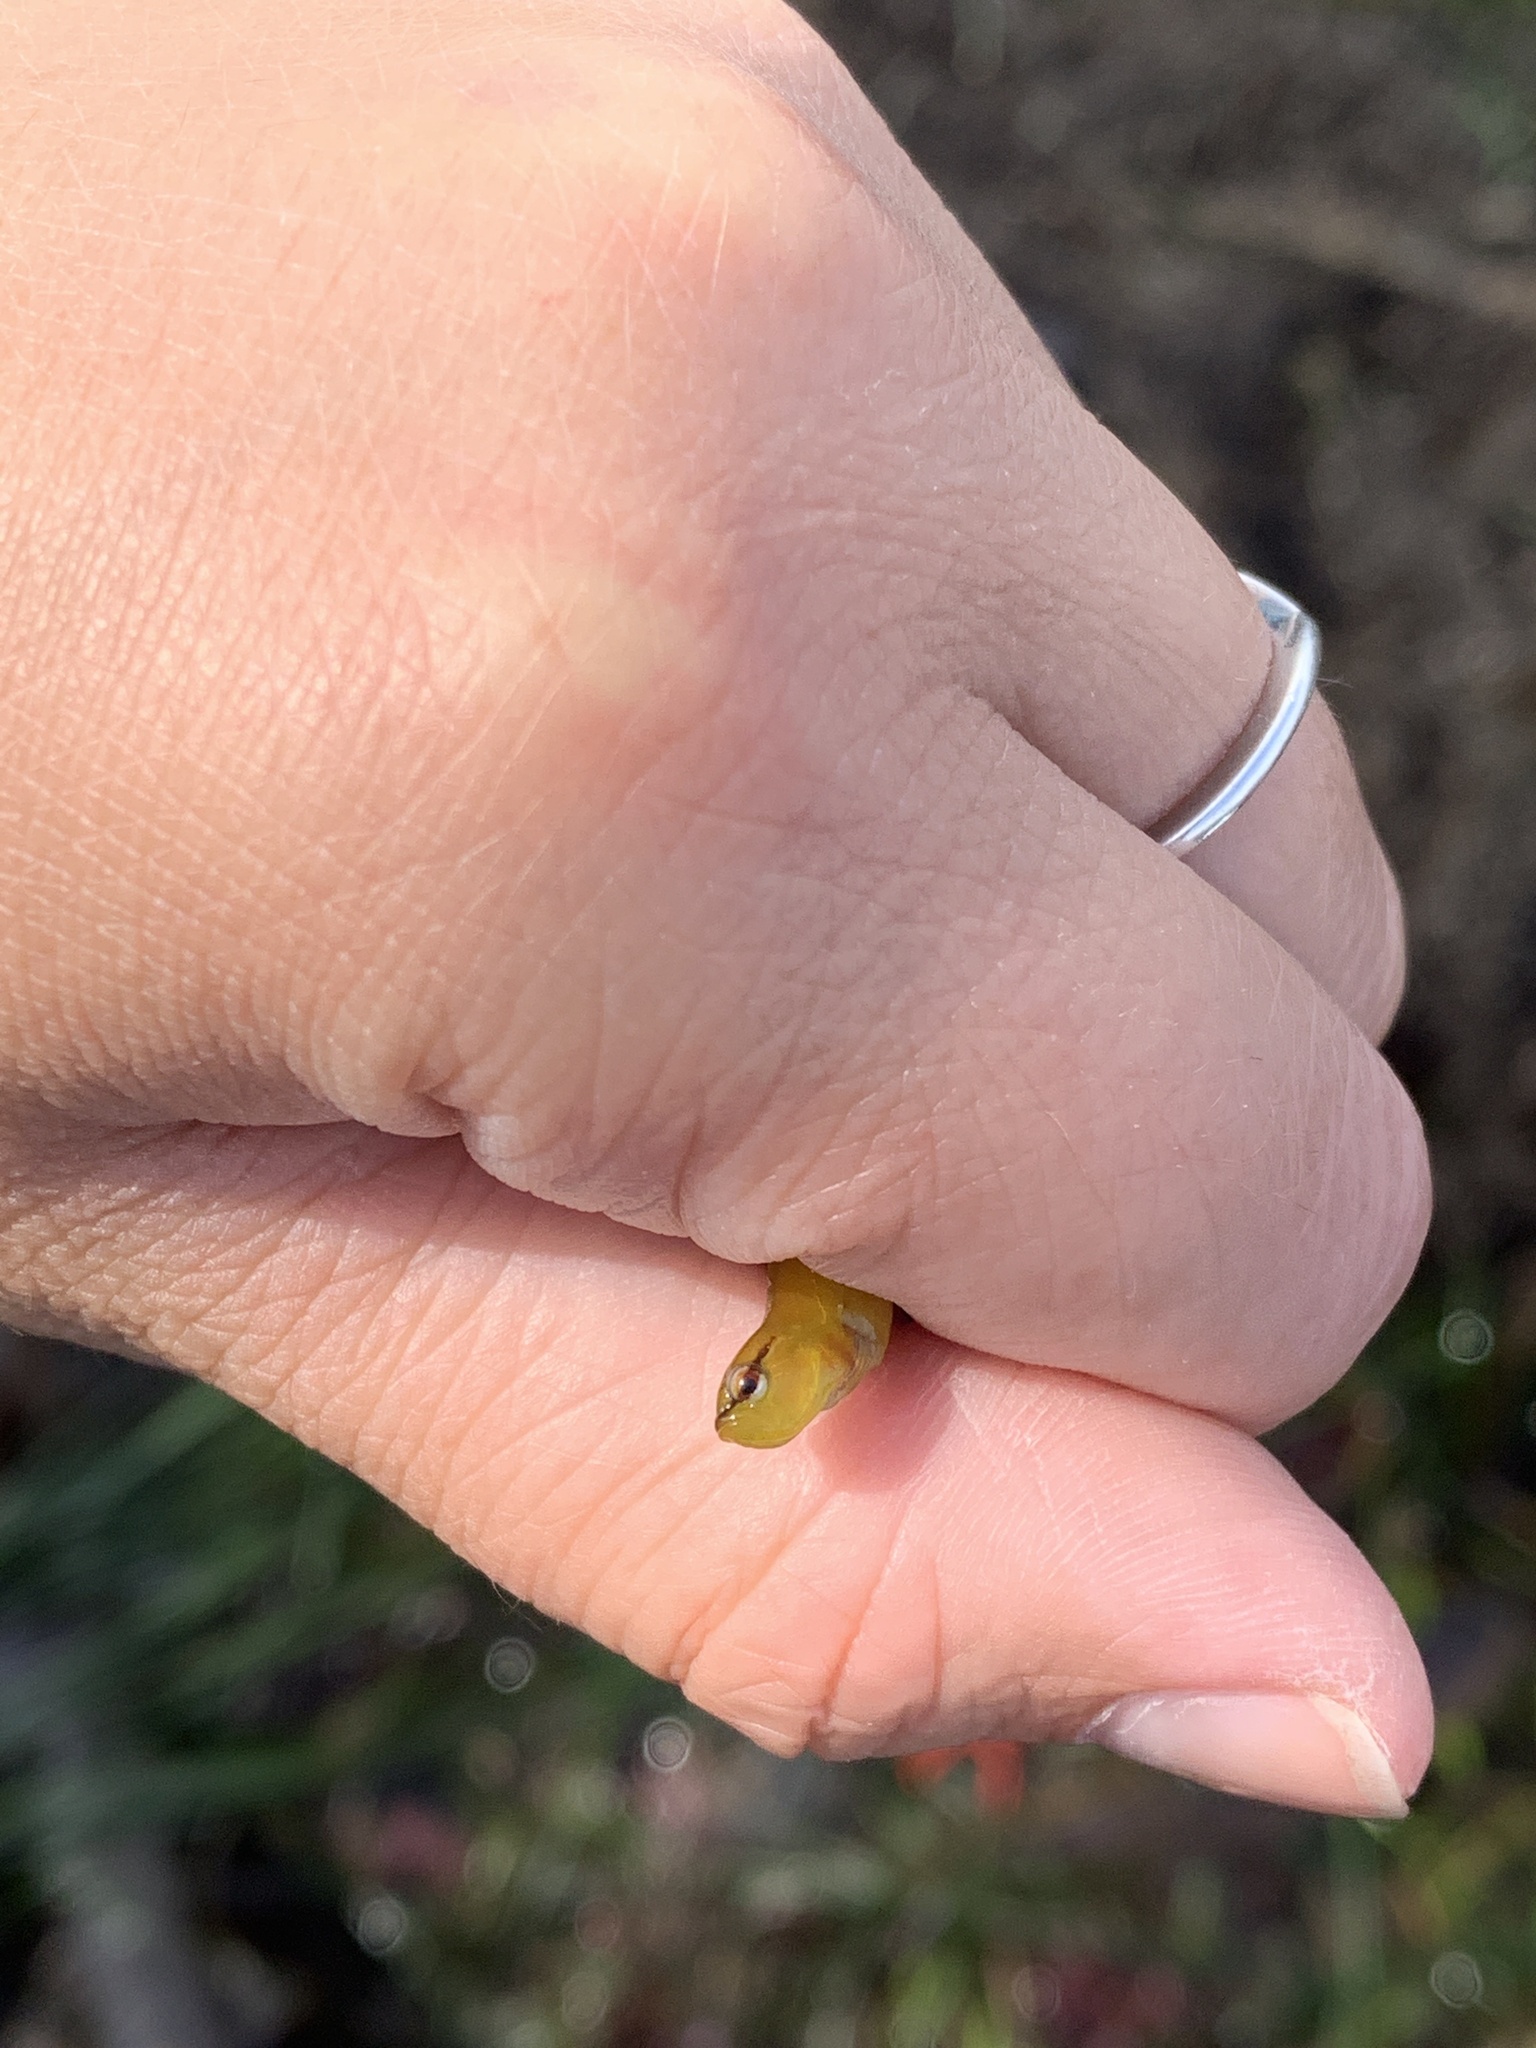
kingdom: Animalia
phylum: Chordata
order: Perciformes
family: Stichaeidae
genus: Phytichthys
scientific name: Phytichthys chirus
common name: Ribbon prickleback
